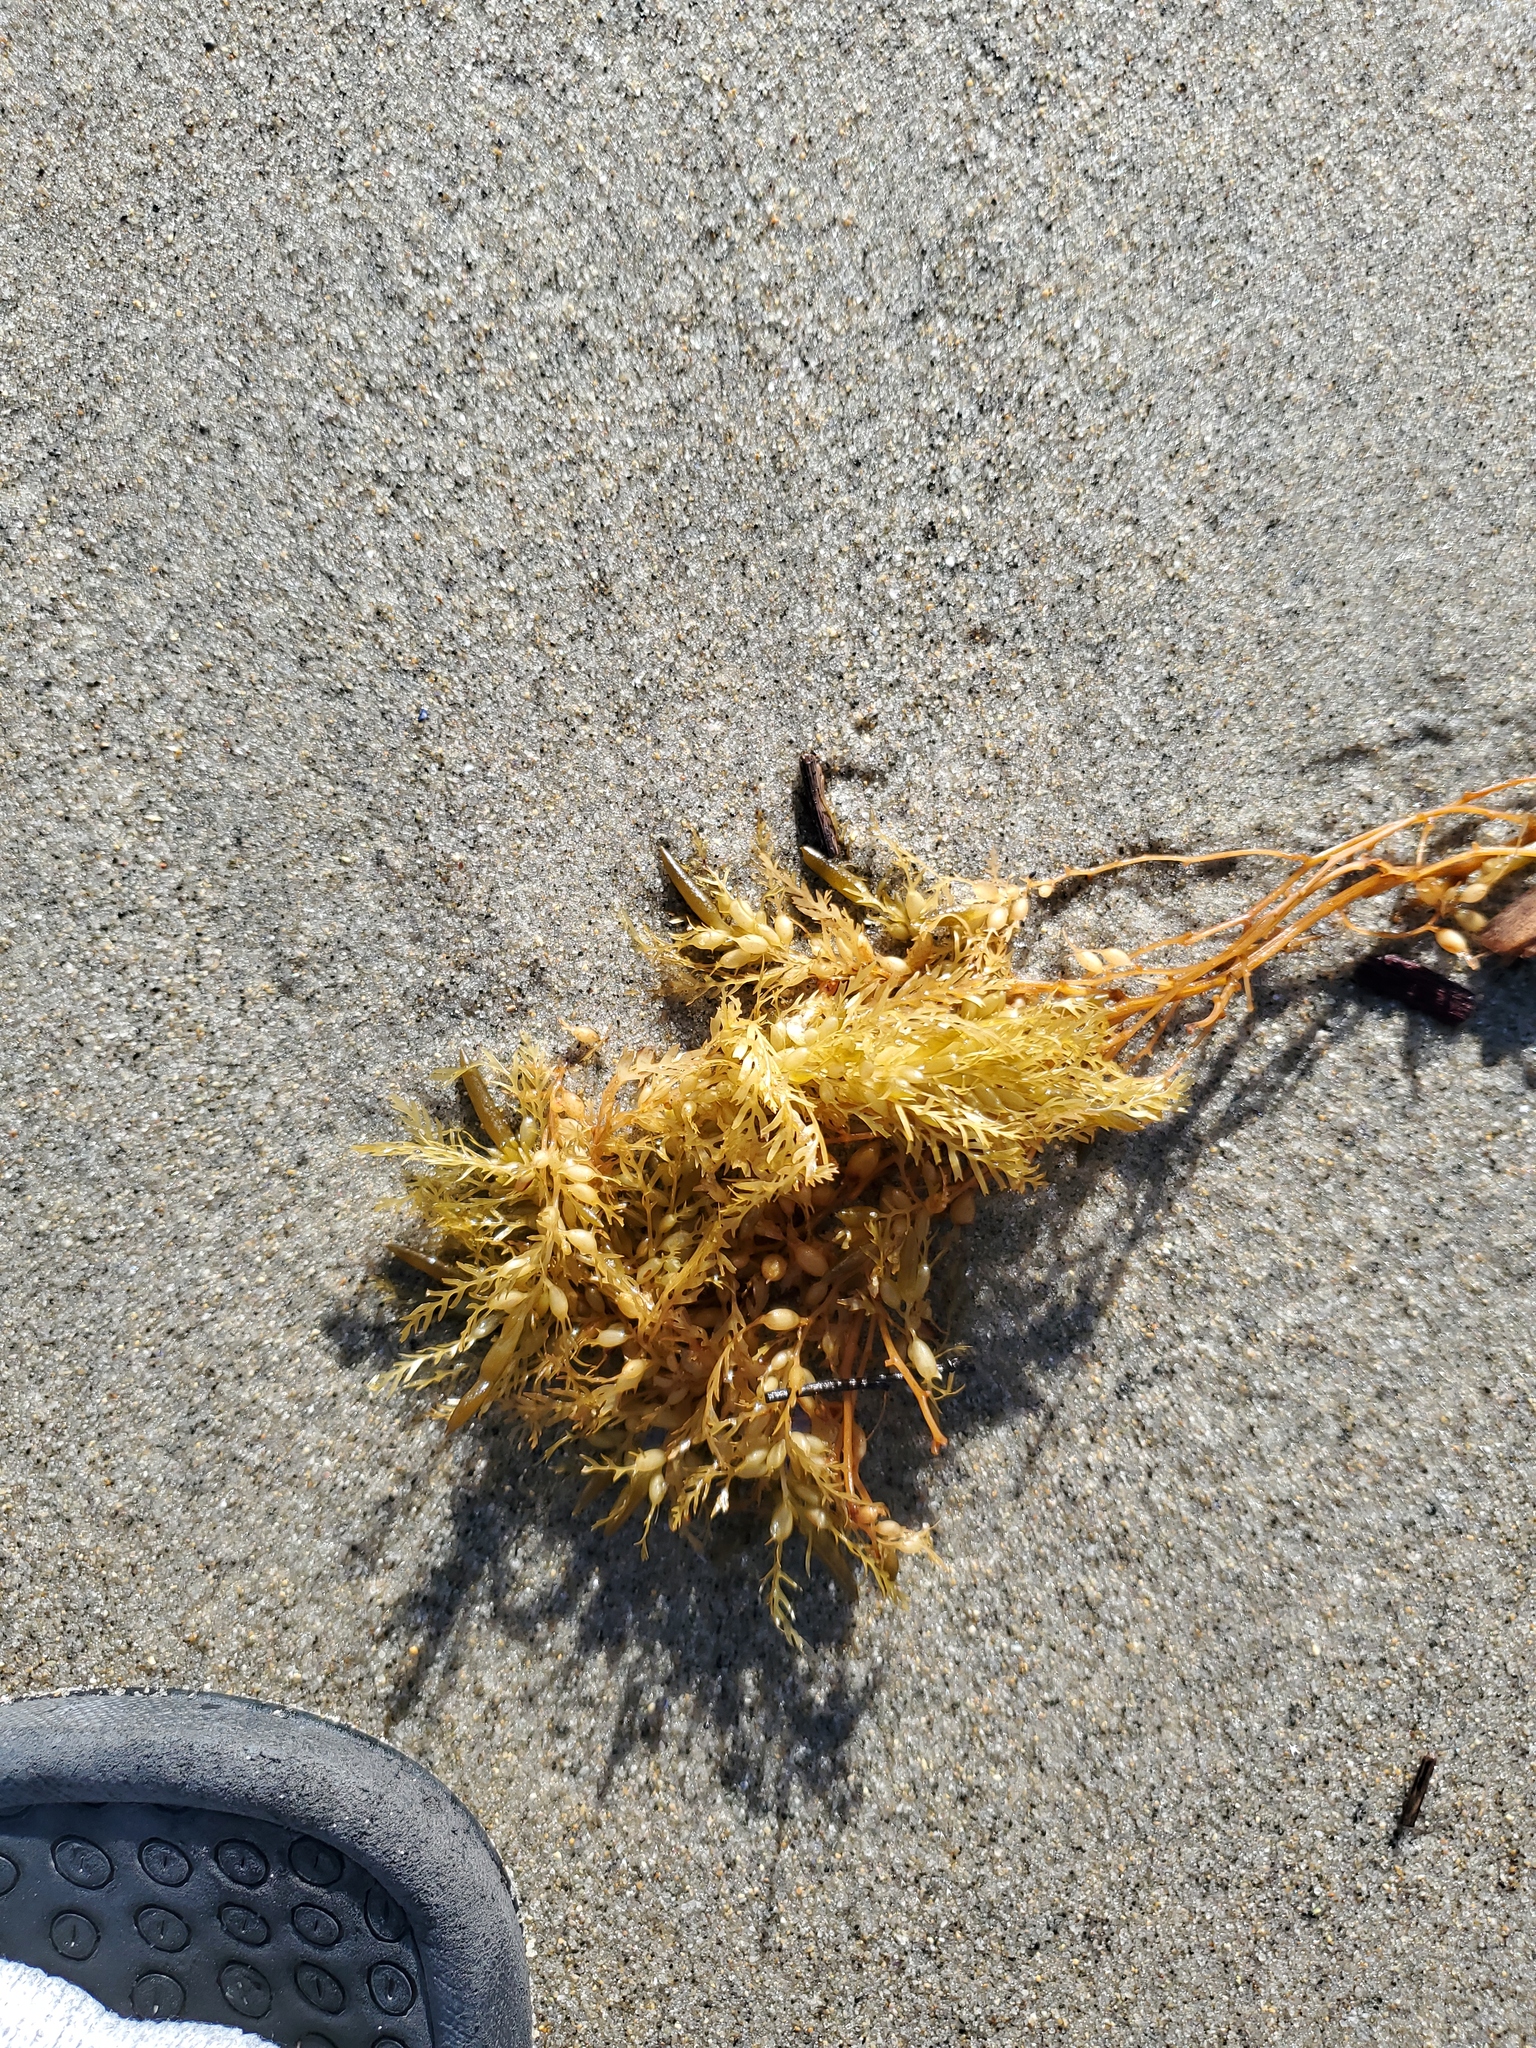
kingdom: Chromista
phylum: Ochrophyta
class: Phaeophyceae
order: Fucales
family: Sargassaceae
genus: Sargassum
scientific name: Sargassum horneri
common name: Devil weed
